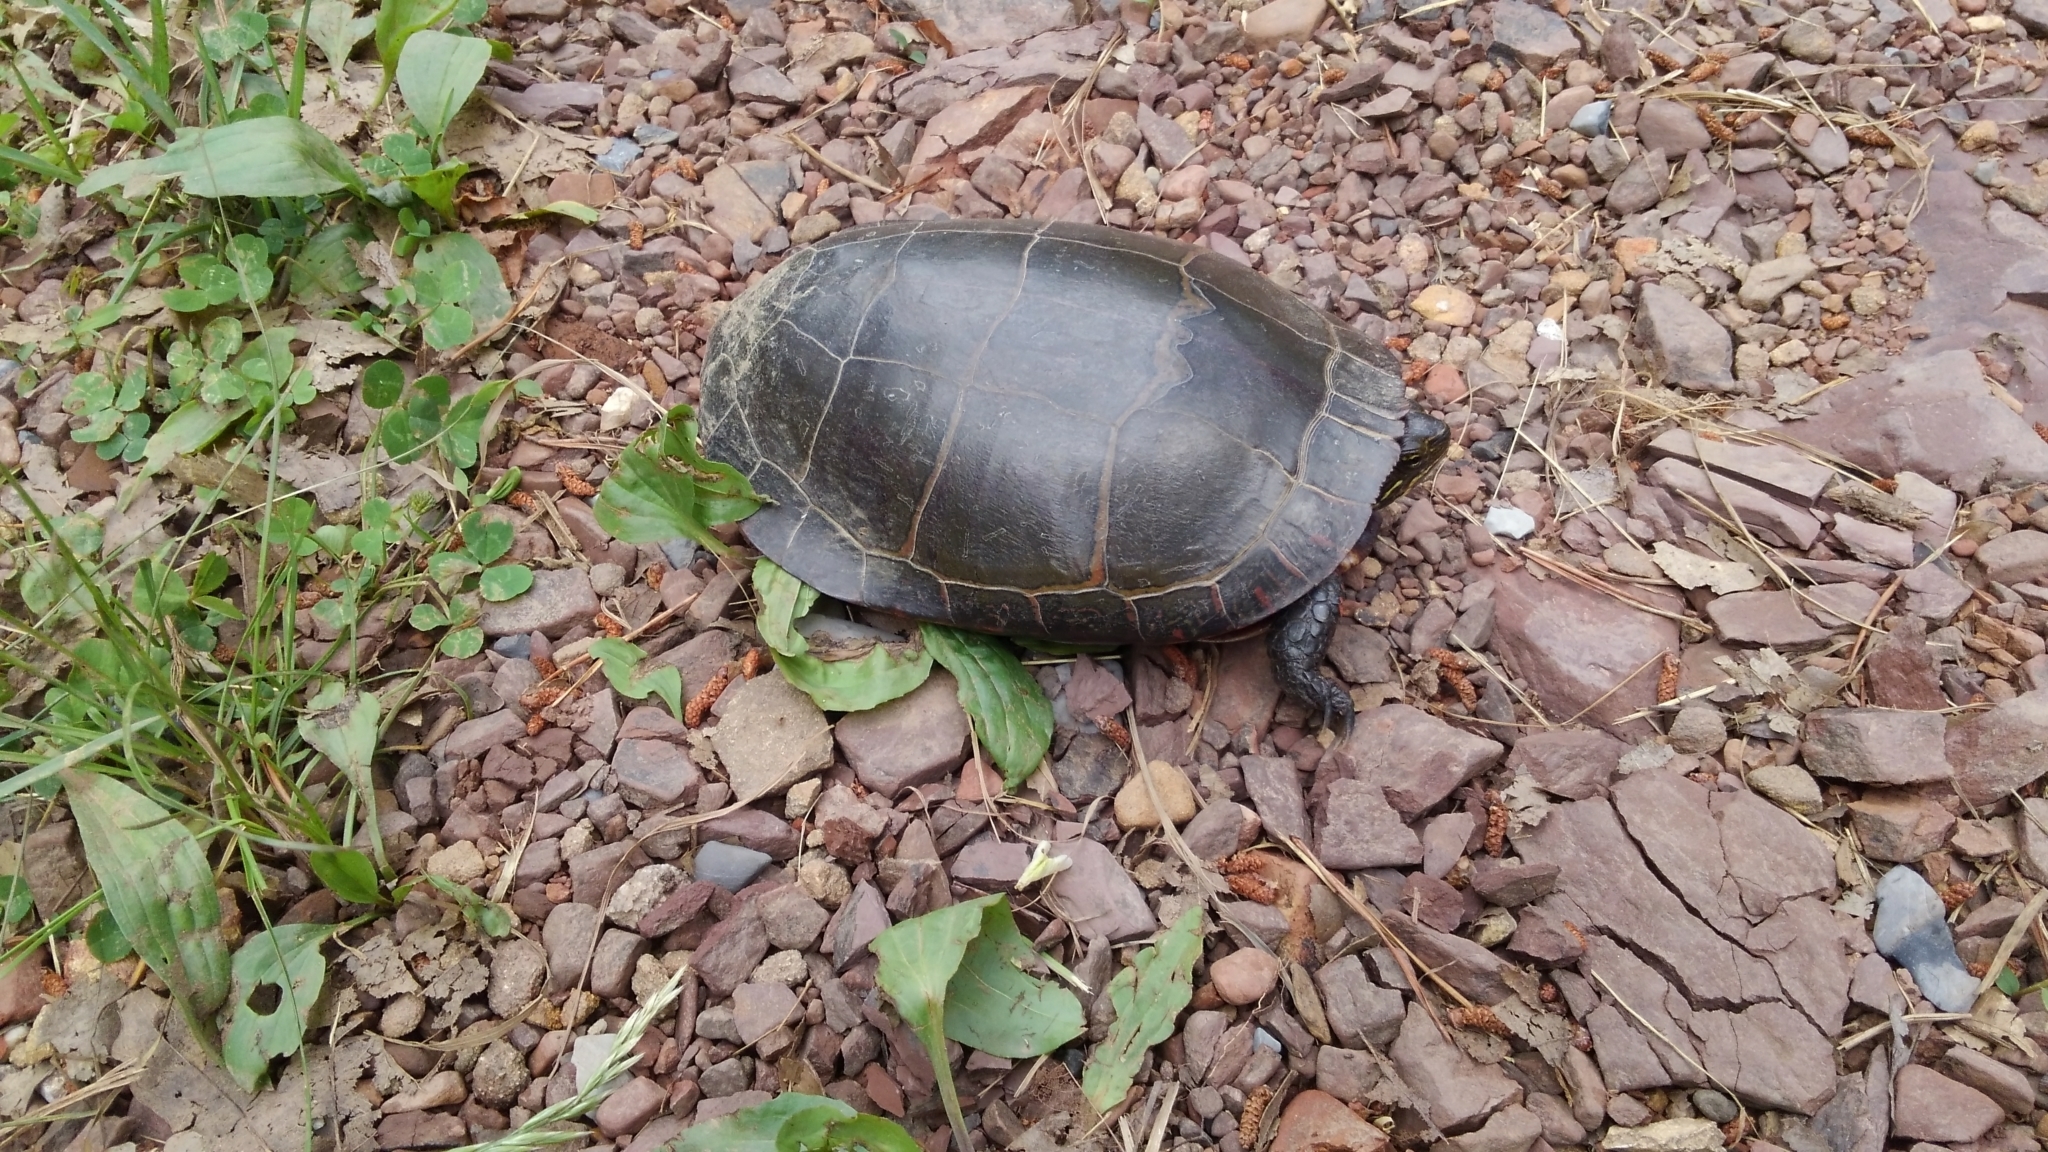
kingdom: Animalia
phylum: Chordata
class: Testudines
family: Emydidae
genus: Chrysemys
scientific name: Chrysemys picta
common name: Painted turtle
